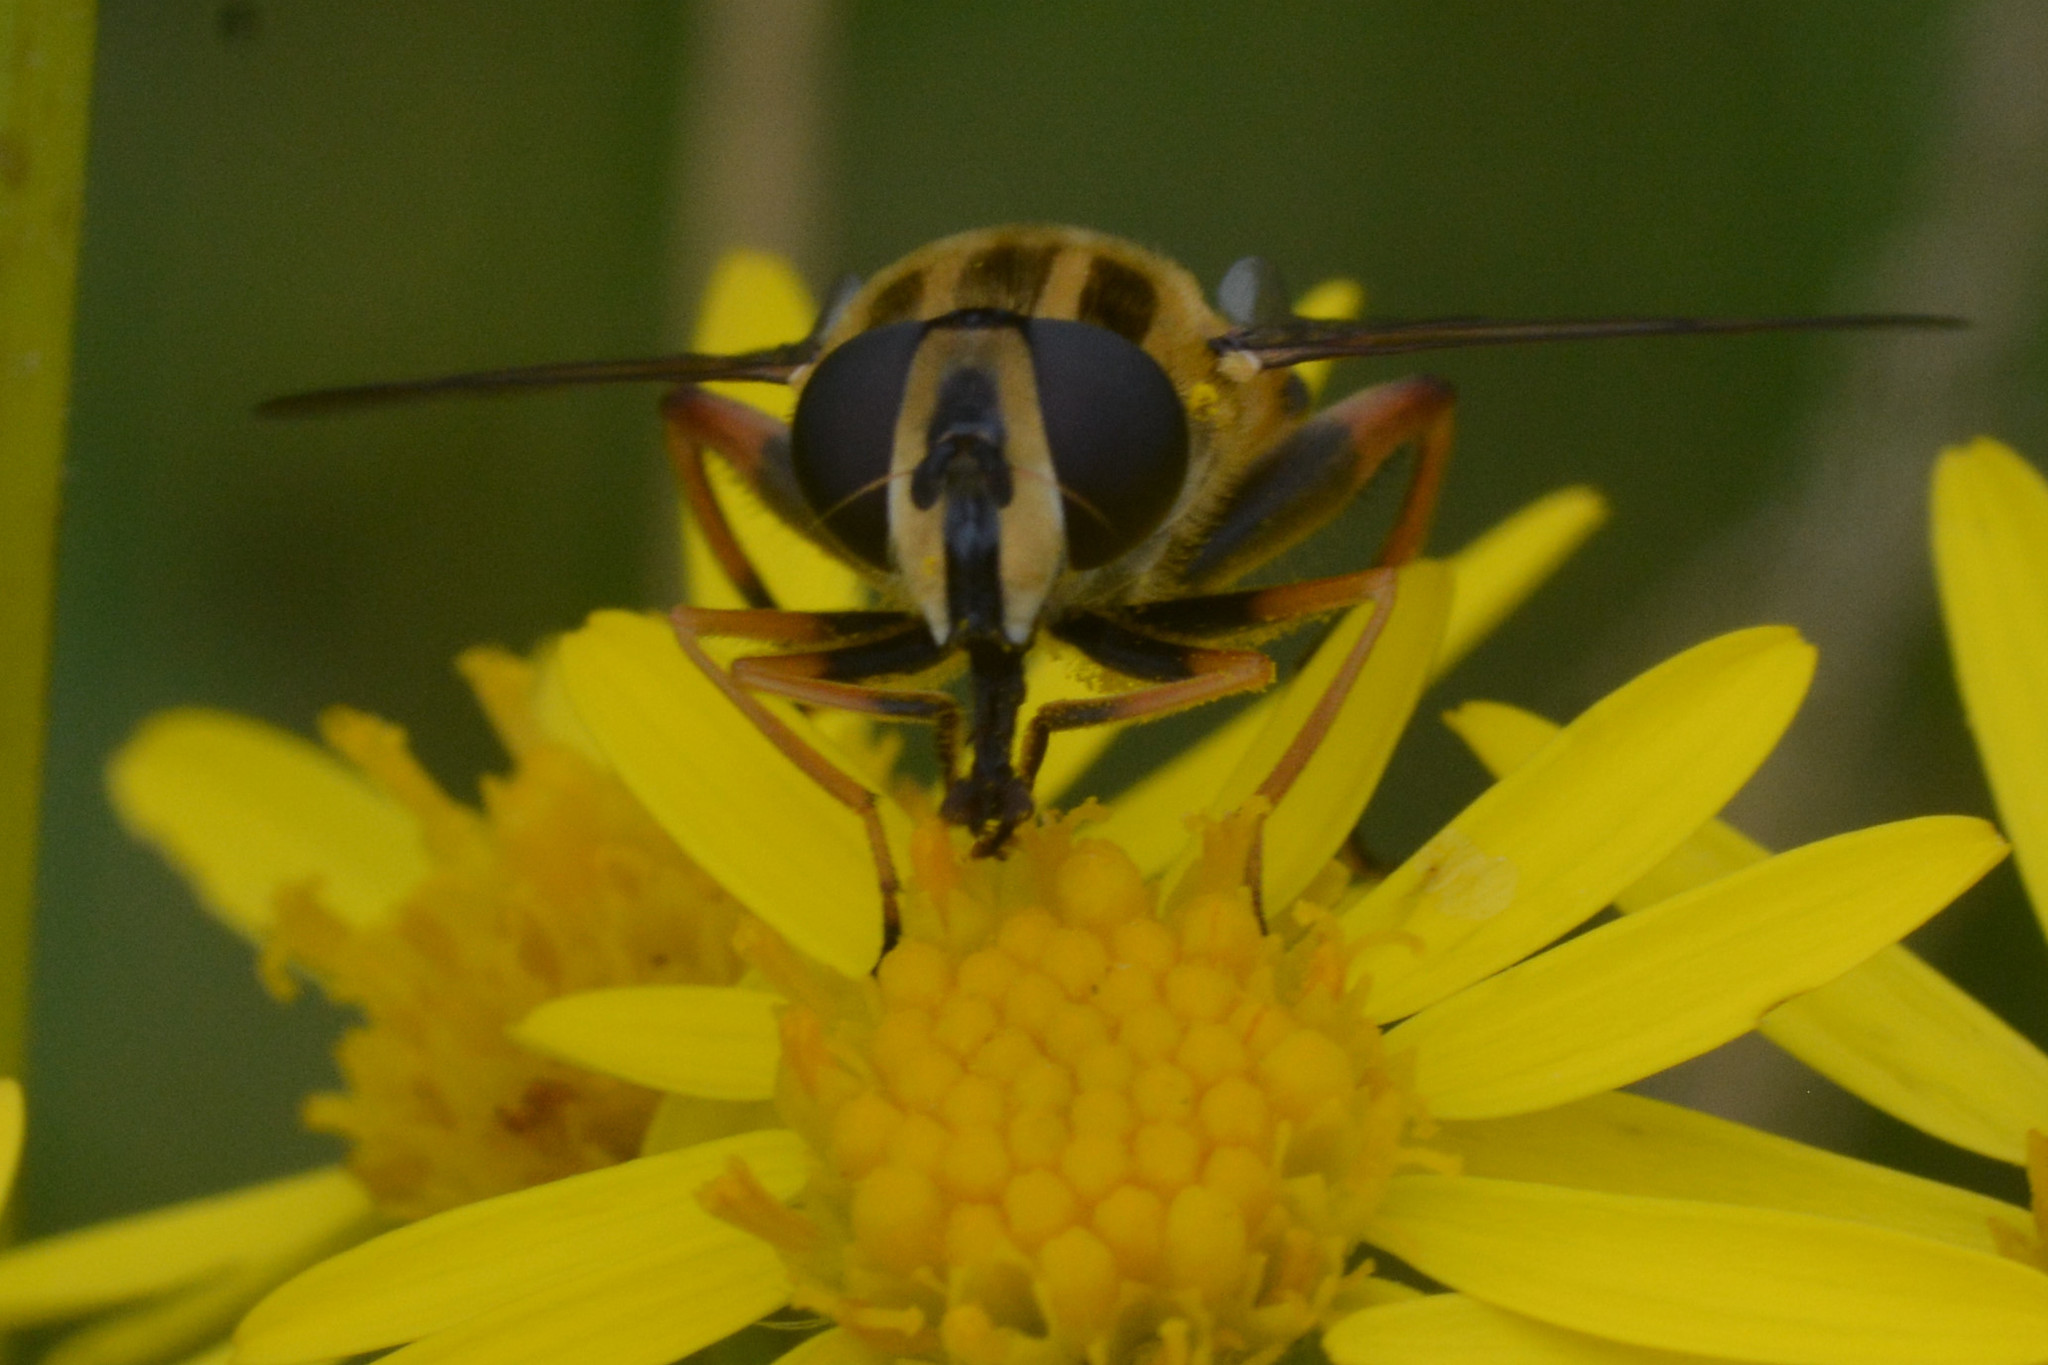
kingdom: Animalia
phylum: Arthropoda
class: Insecta
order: Diptera
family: Syrphidae
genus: Helophilus
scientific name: Helophilus pendulus
